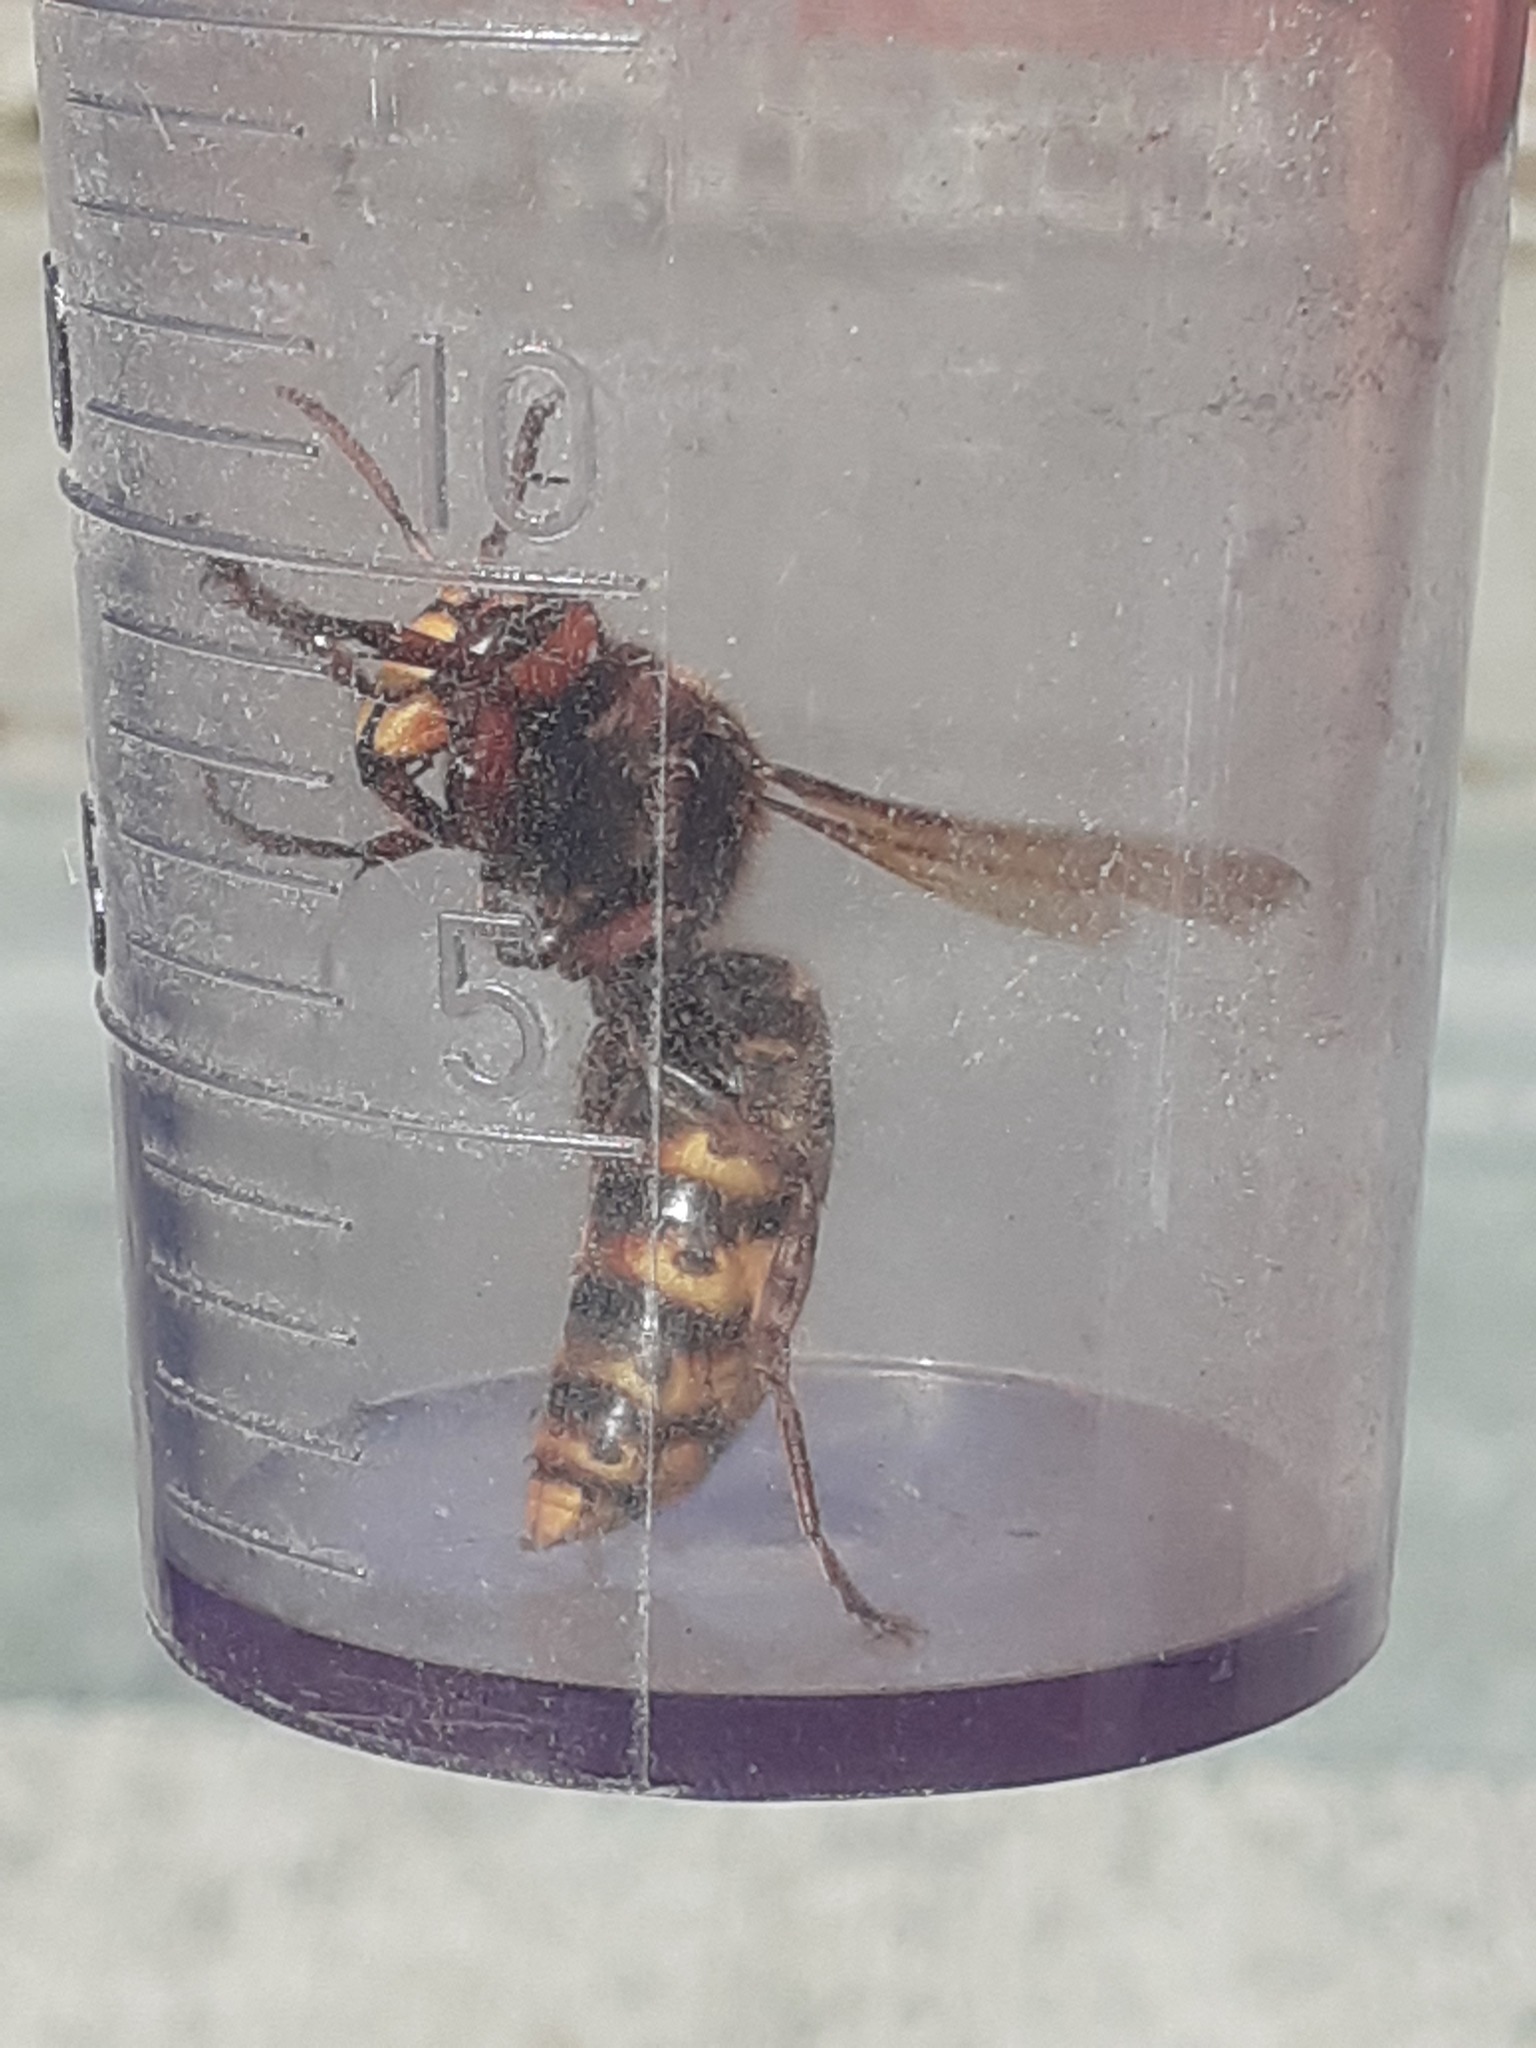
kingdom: Animalia
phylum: Arthropoda
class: Insecta
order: Hymenoptera
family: Vespidae
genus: Vespa
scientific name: Vespa crabro
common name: Hornet
